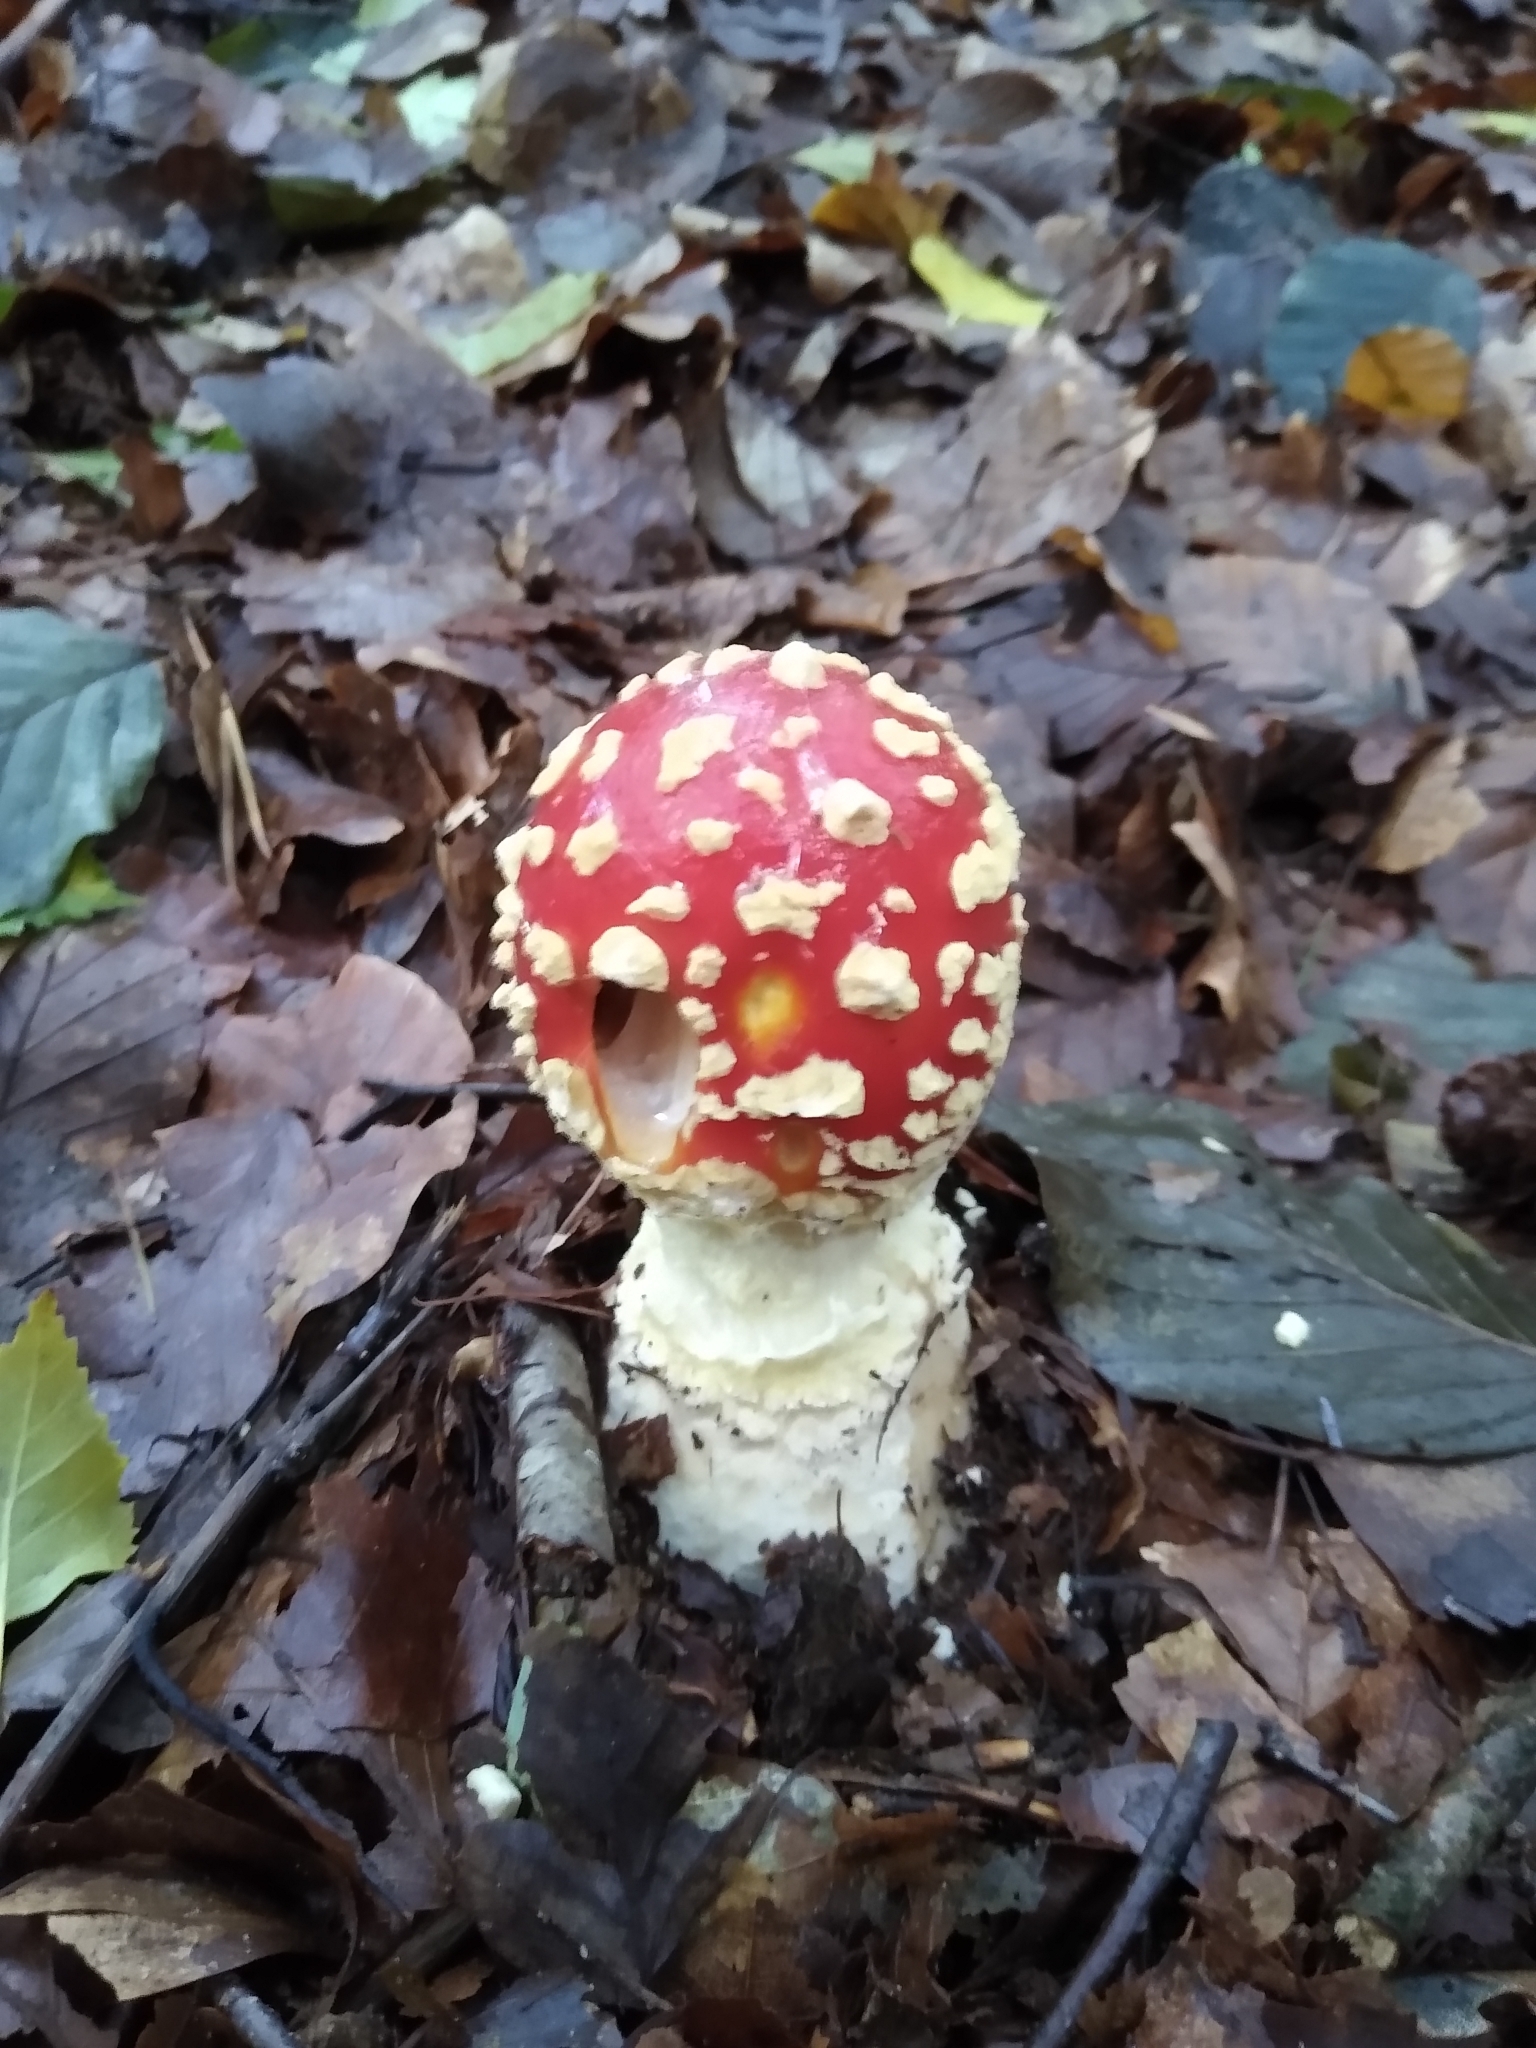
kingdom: Fungi
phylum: Basidiomycota
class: Agaricomycetes
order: Agaricales
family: Amanitaceae
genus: Amanita
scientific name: Amanita muscaria
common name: Fly agaric
